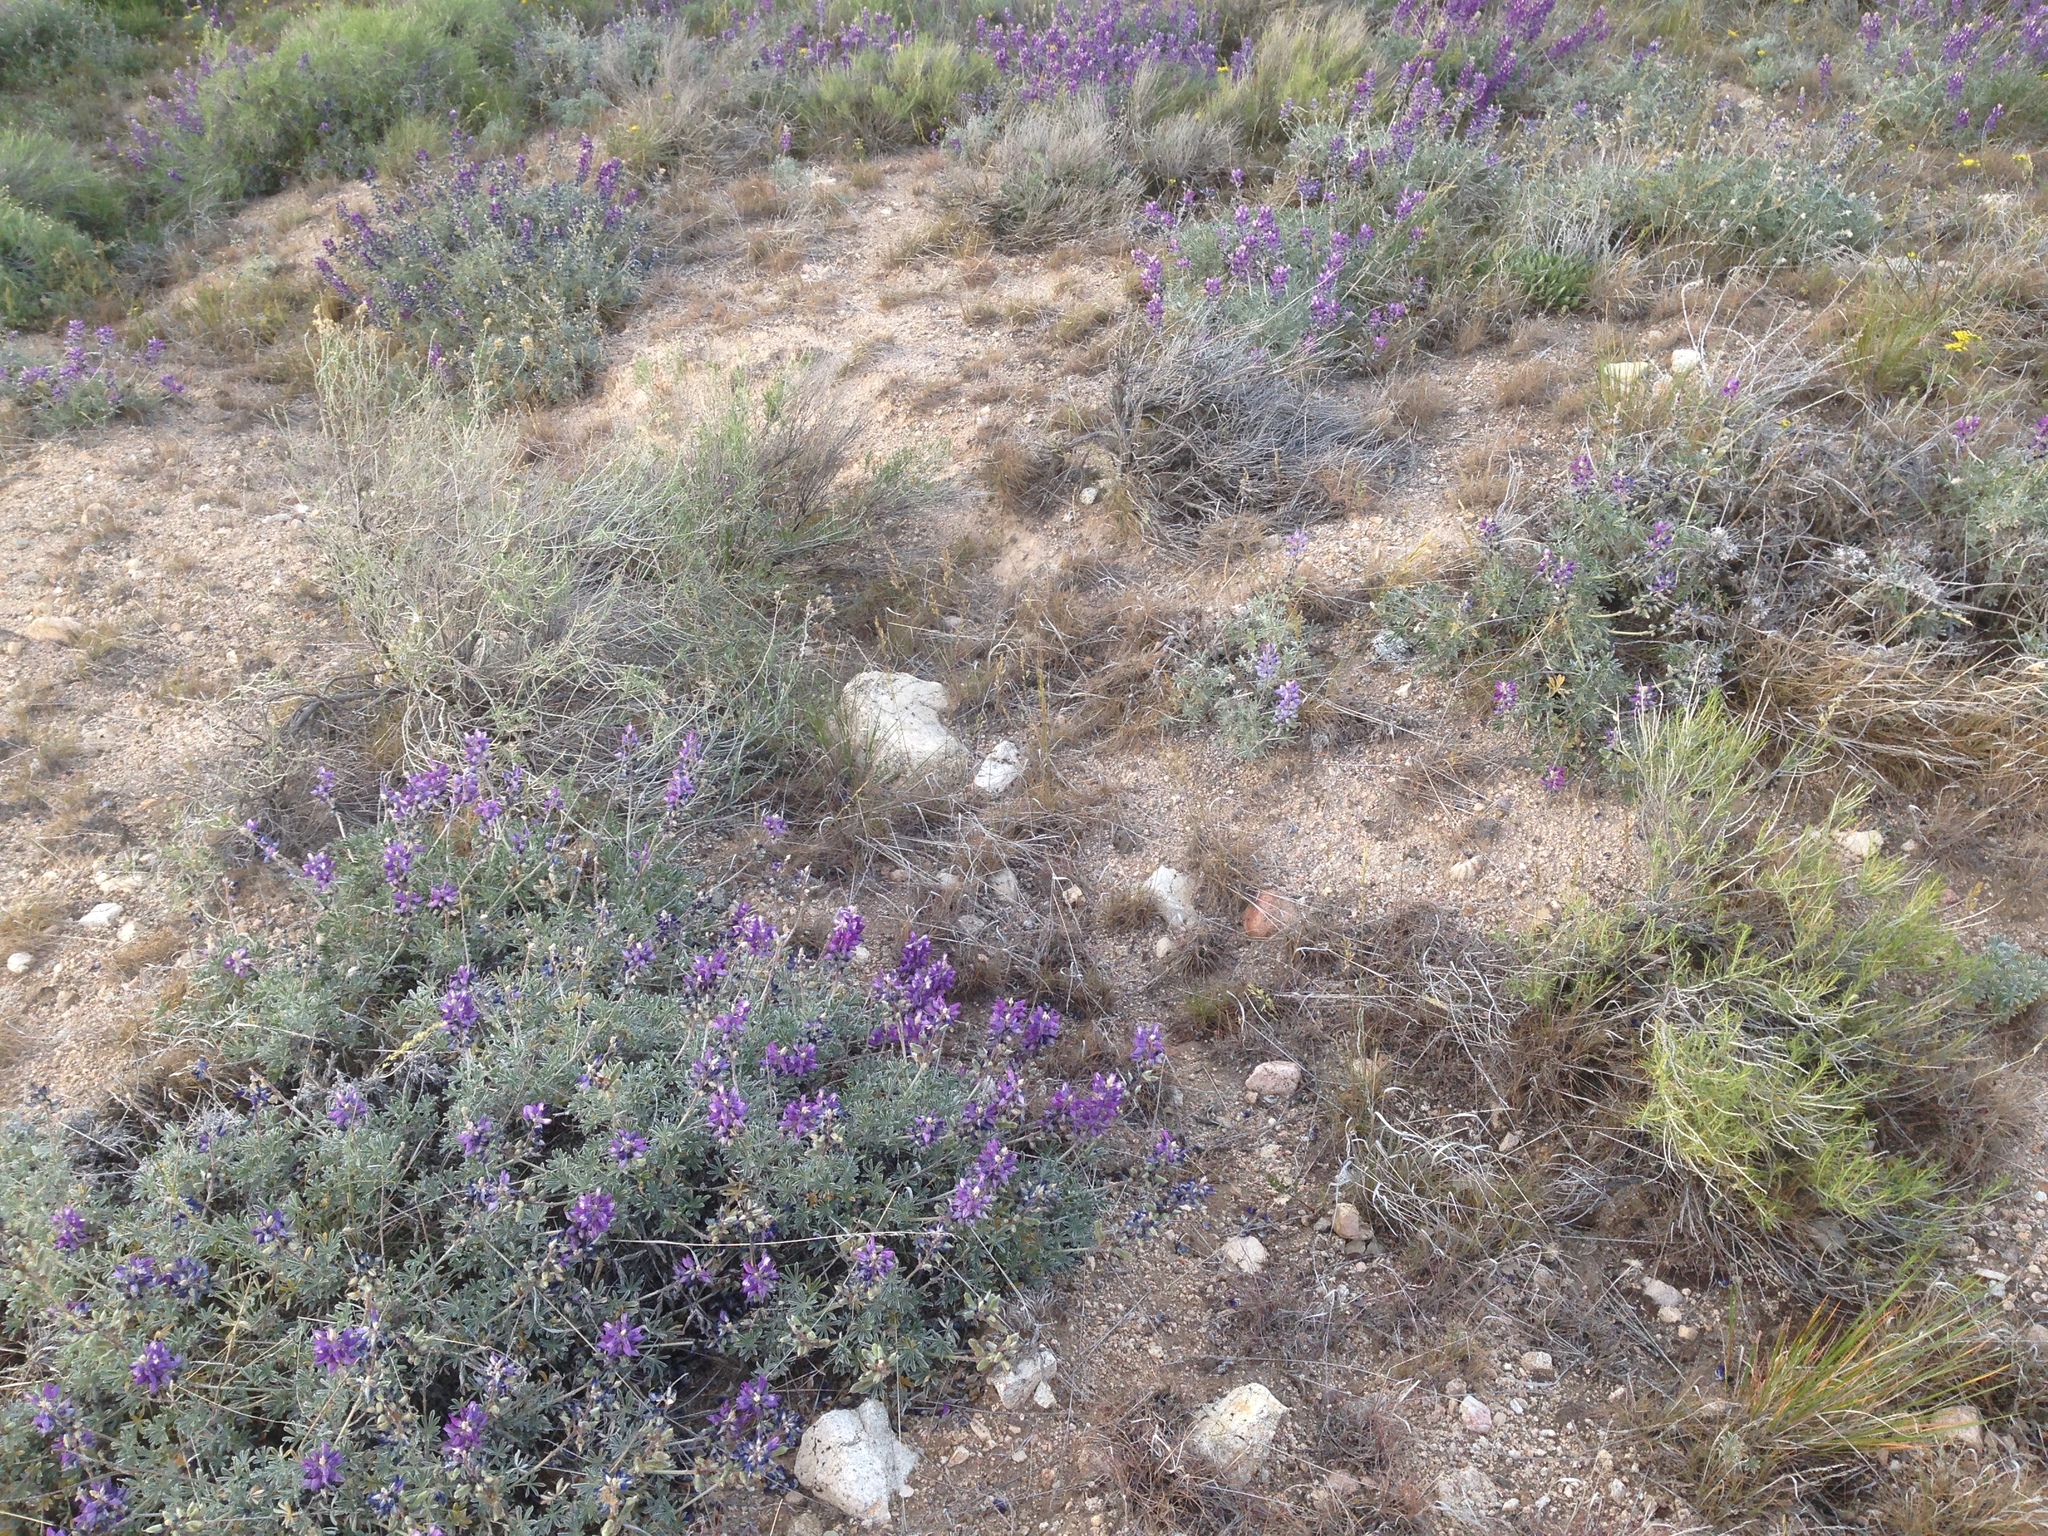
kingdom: Plantae
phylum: Tracheophyta
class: Magnoliopsida
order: Fabales
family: Fabaceae
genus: Lupinus
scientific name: Lupinus excubitus
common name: Grape soda lupine
